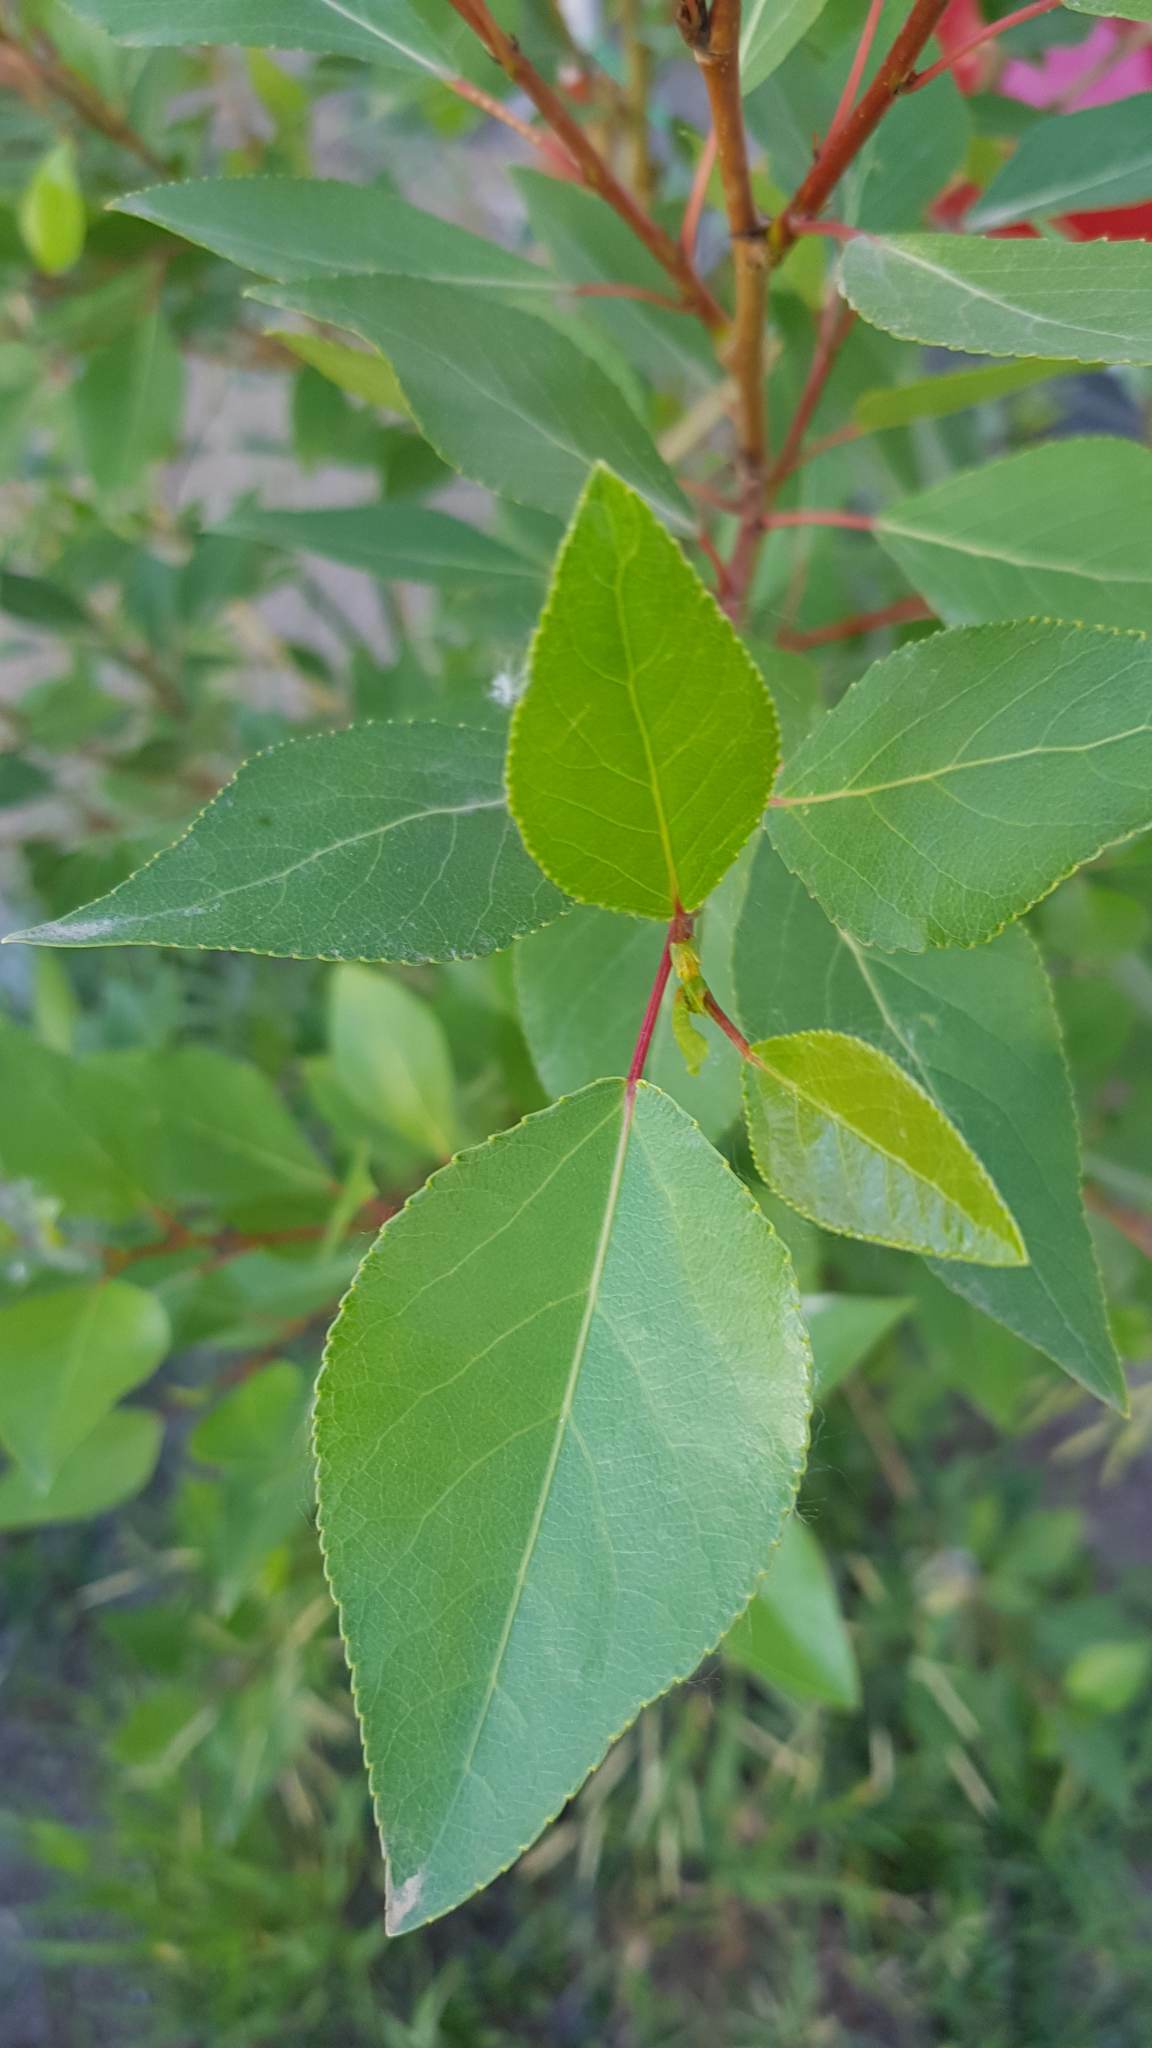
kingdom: Plantae
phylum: Tracheophyta
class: Magnoliopsida
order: Malpighiales
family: Salicaceae
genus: Populus
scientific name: Populus laurifolia
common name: Laurel-leaf poplar
